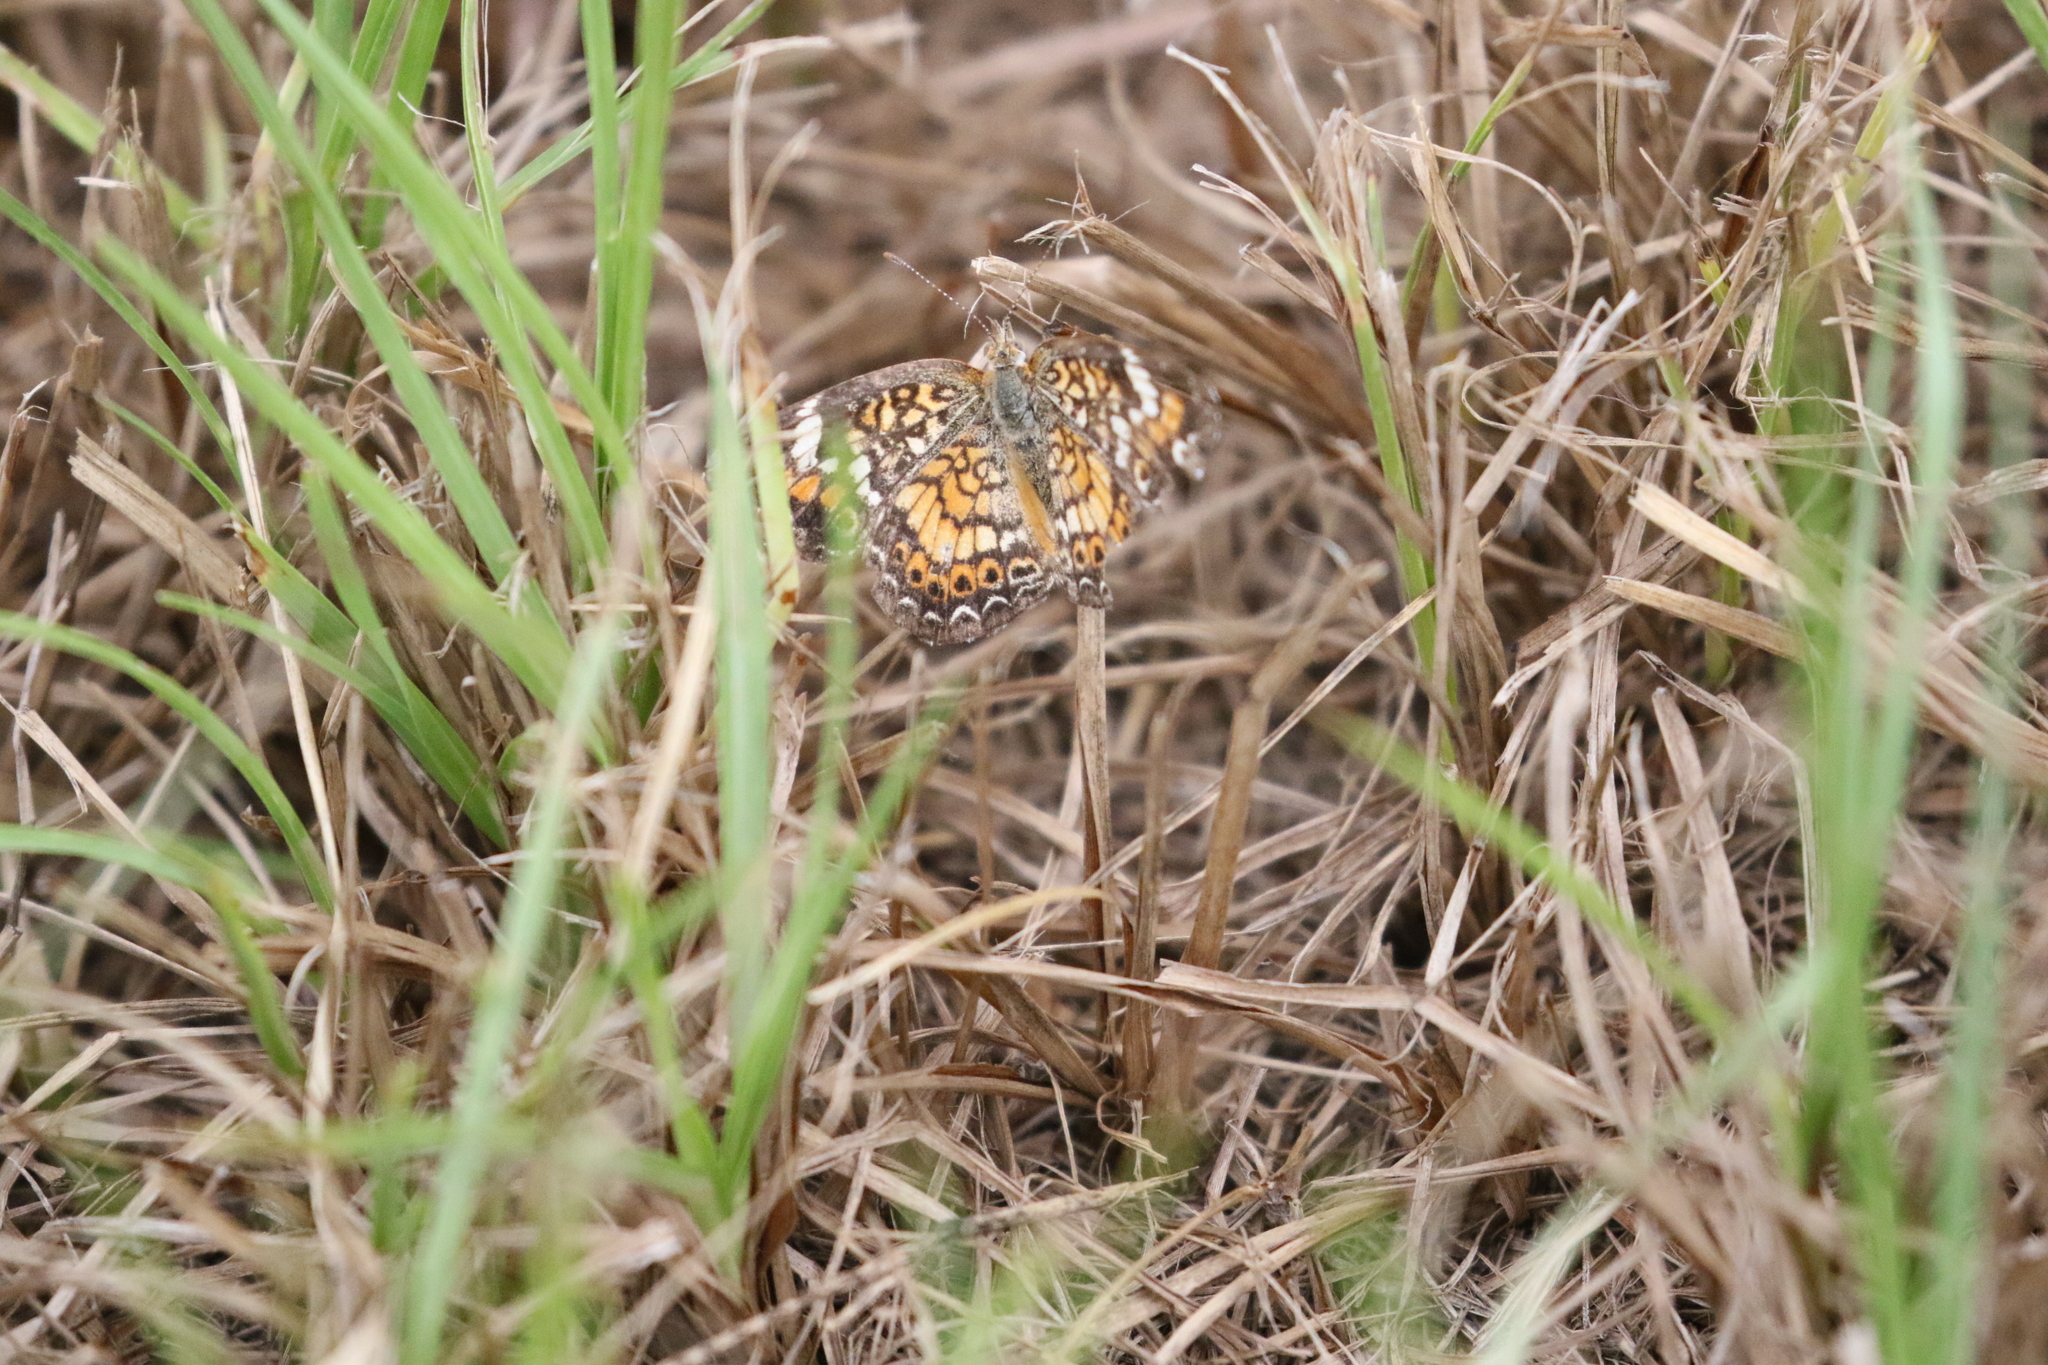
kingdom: Animalia
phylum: Arthropoda
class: Insecta
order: Lepidoptera
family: Nymphalidae
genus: Phyciodes
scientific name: Phyciodes phaon
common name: Phaon crescent
